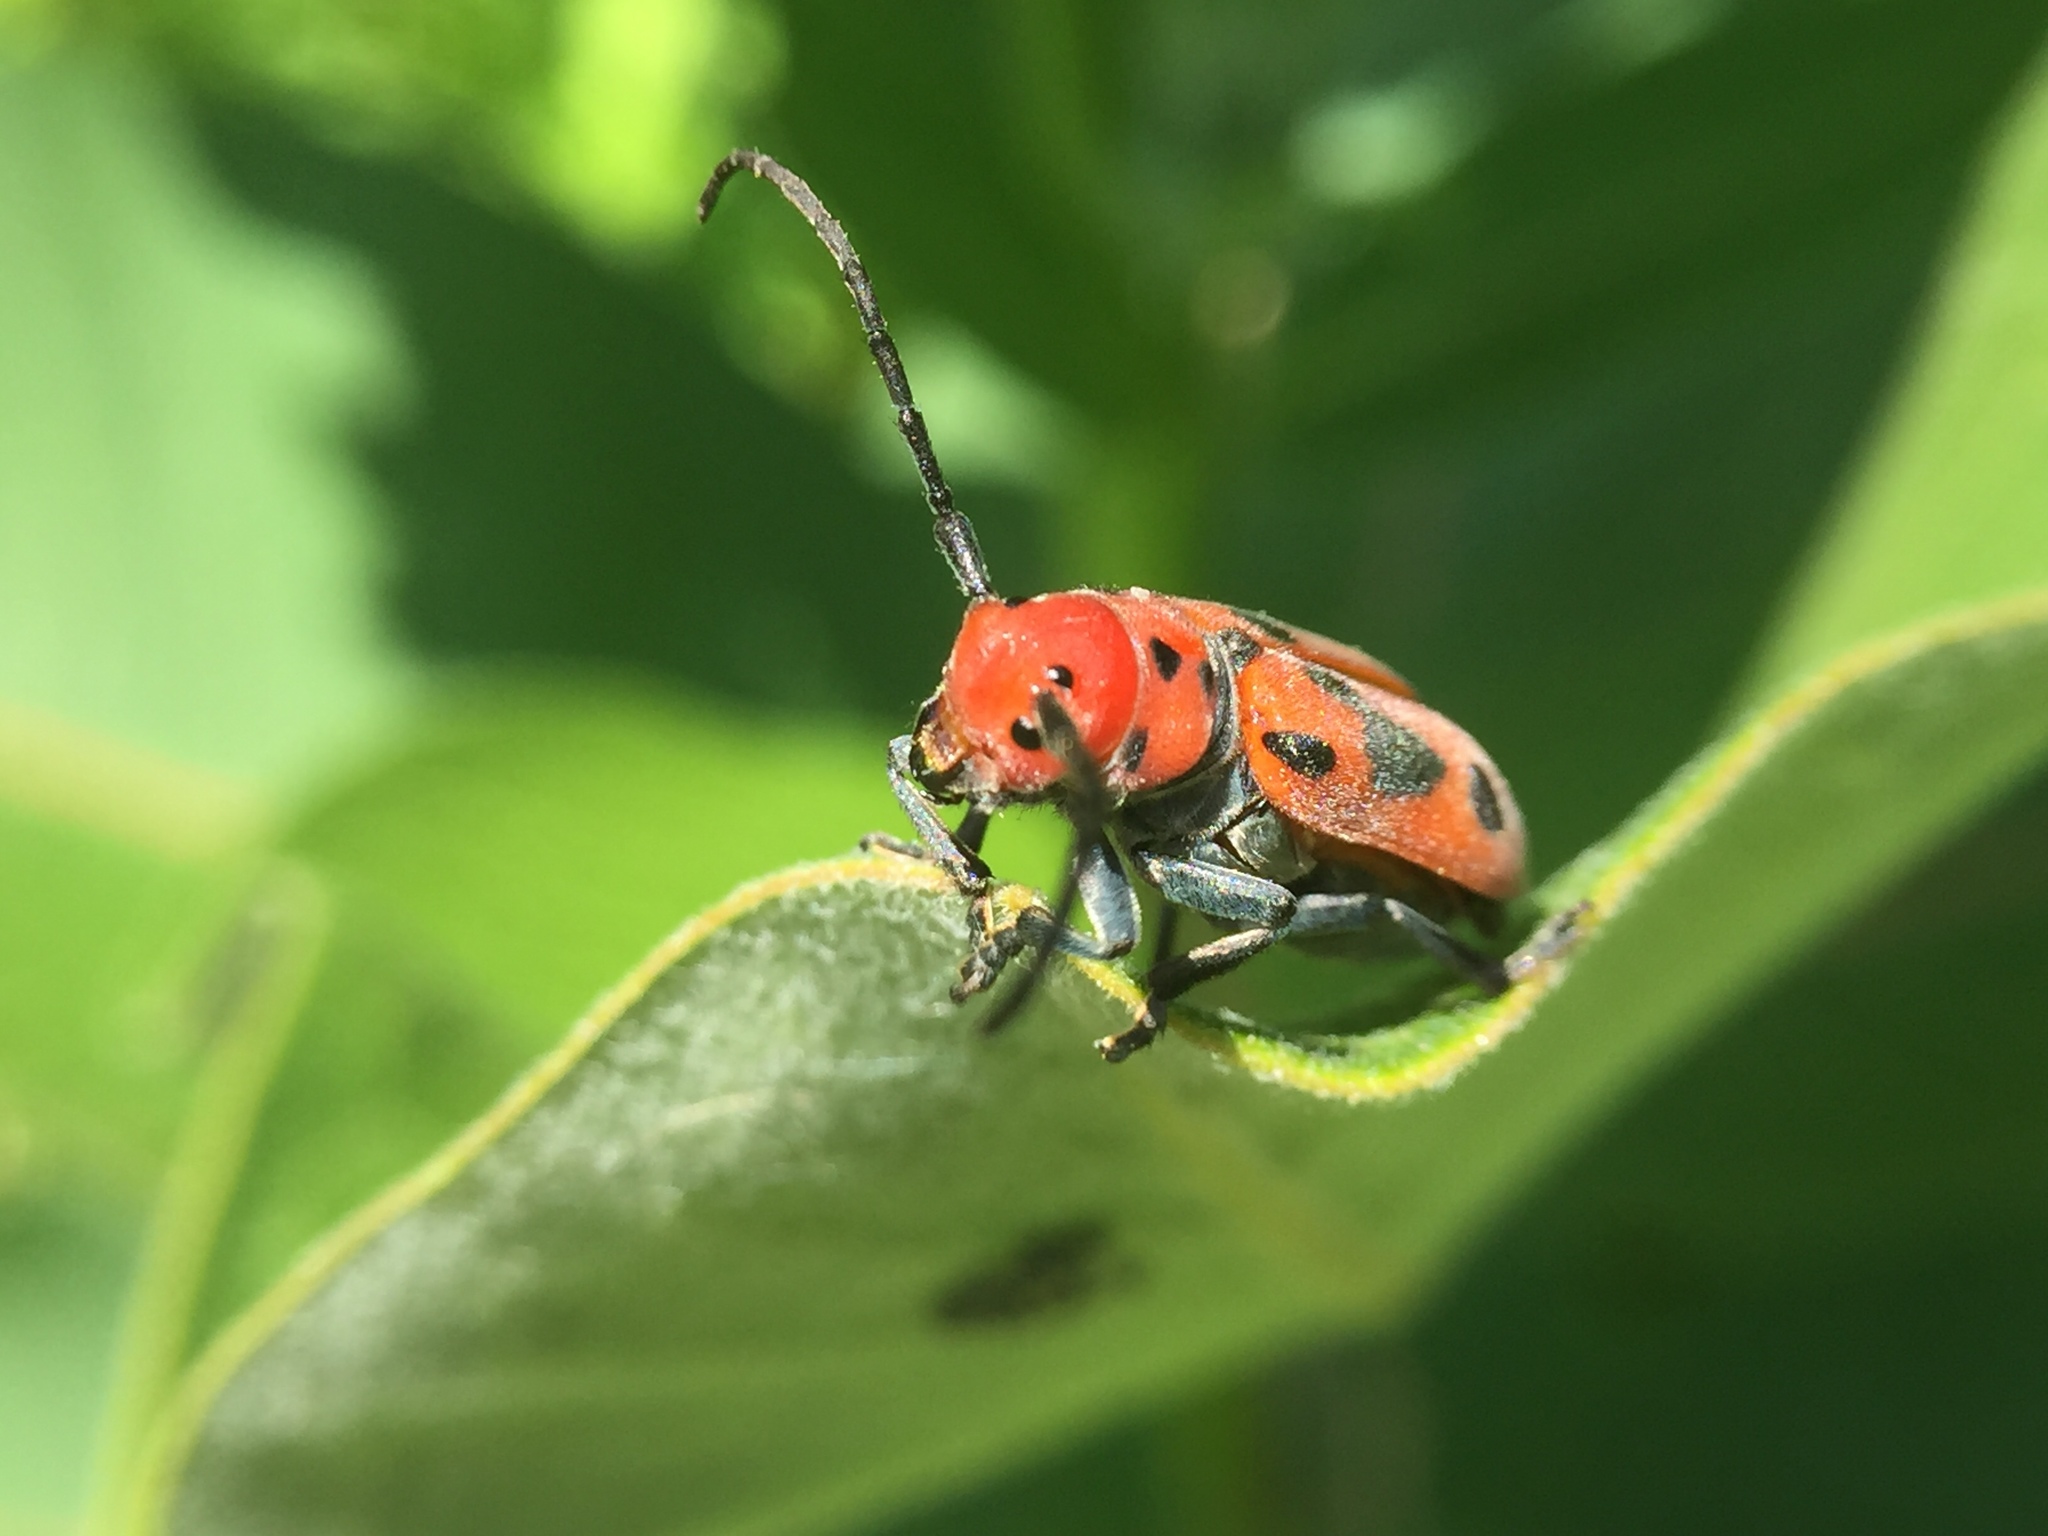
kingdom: Animalia
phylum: Arthropoda
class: Insecta
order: Coleoptera
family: Cerambycidae
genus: Tetraopes
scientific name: Tetraopes tetrophthalmus
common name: Red milkweed beetle
